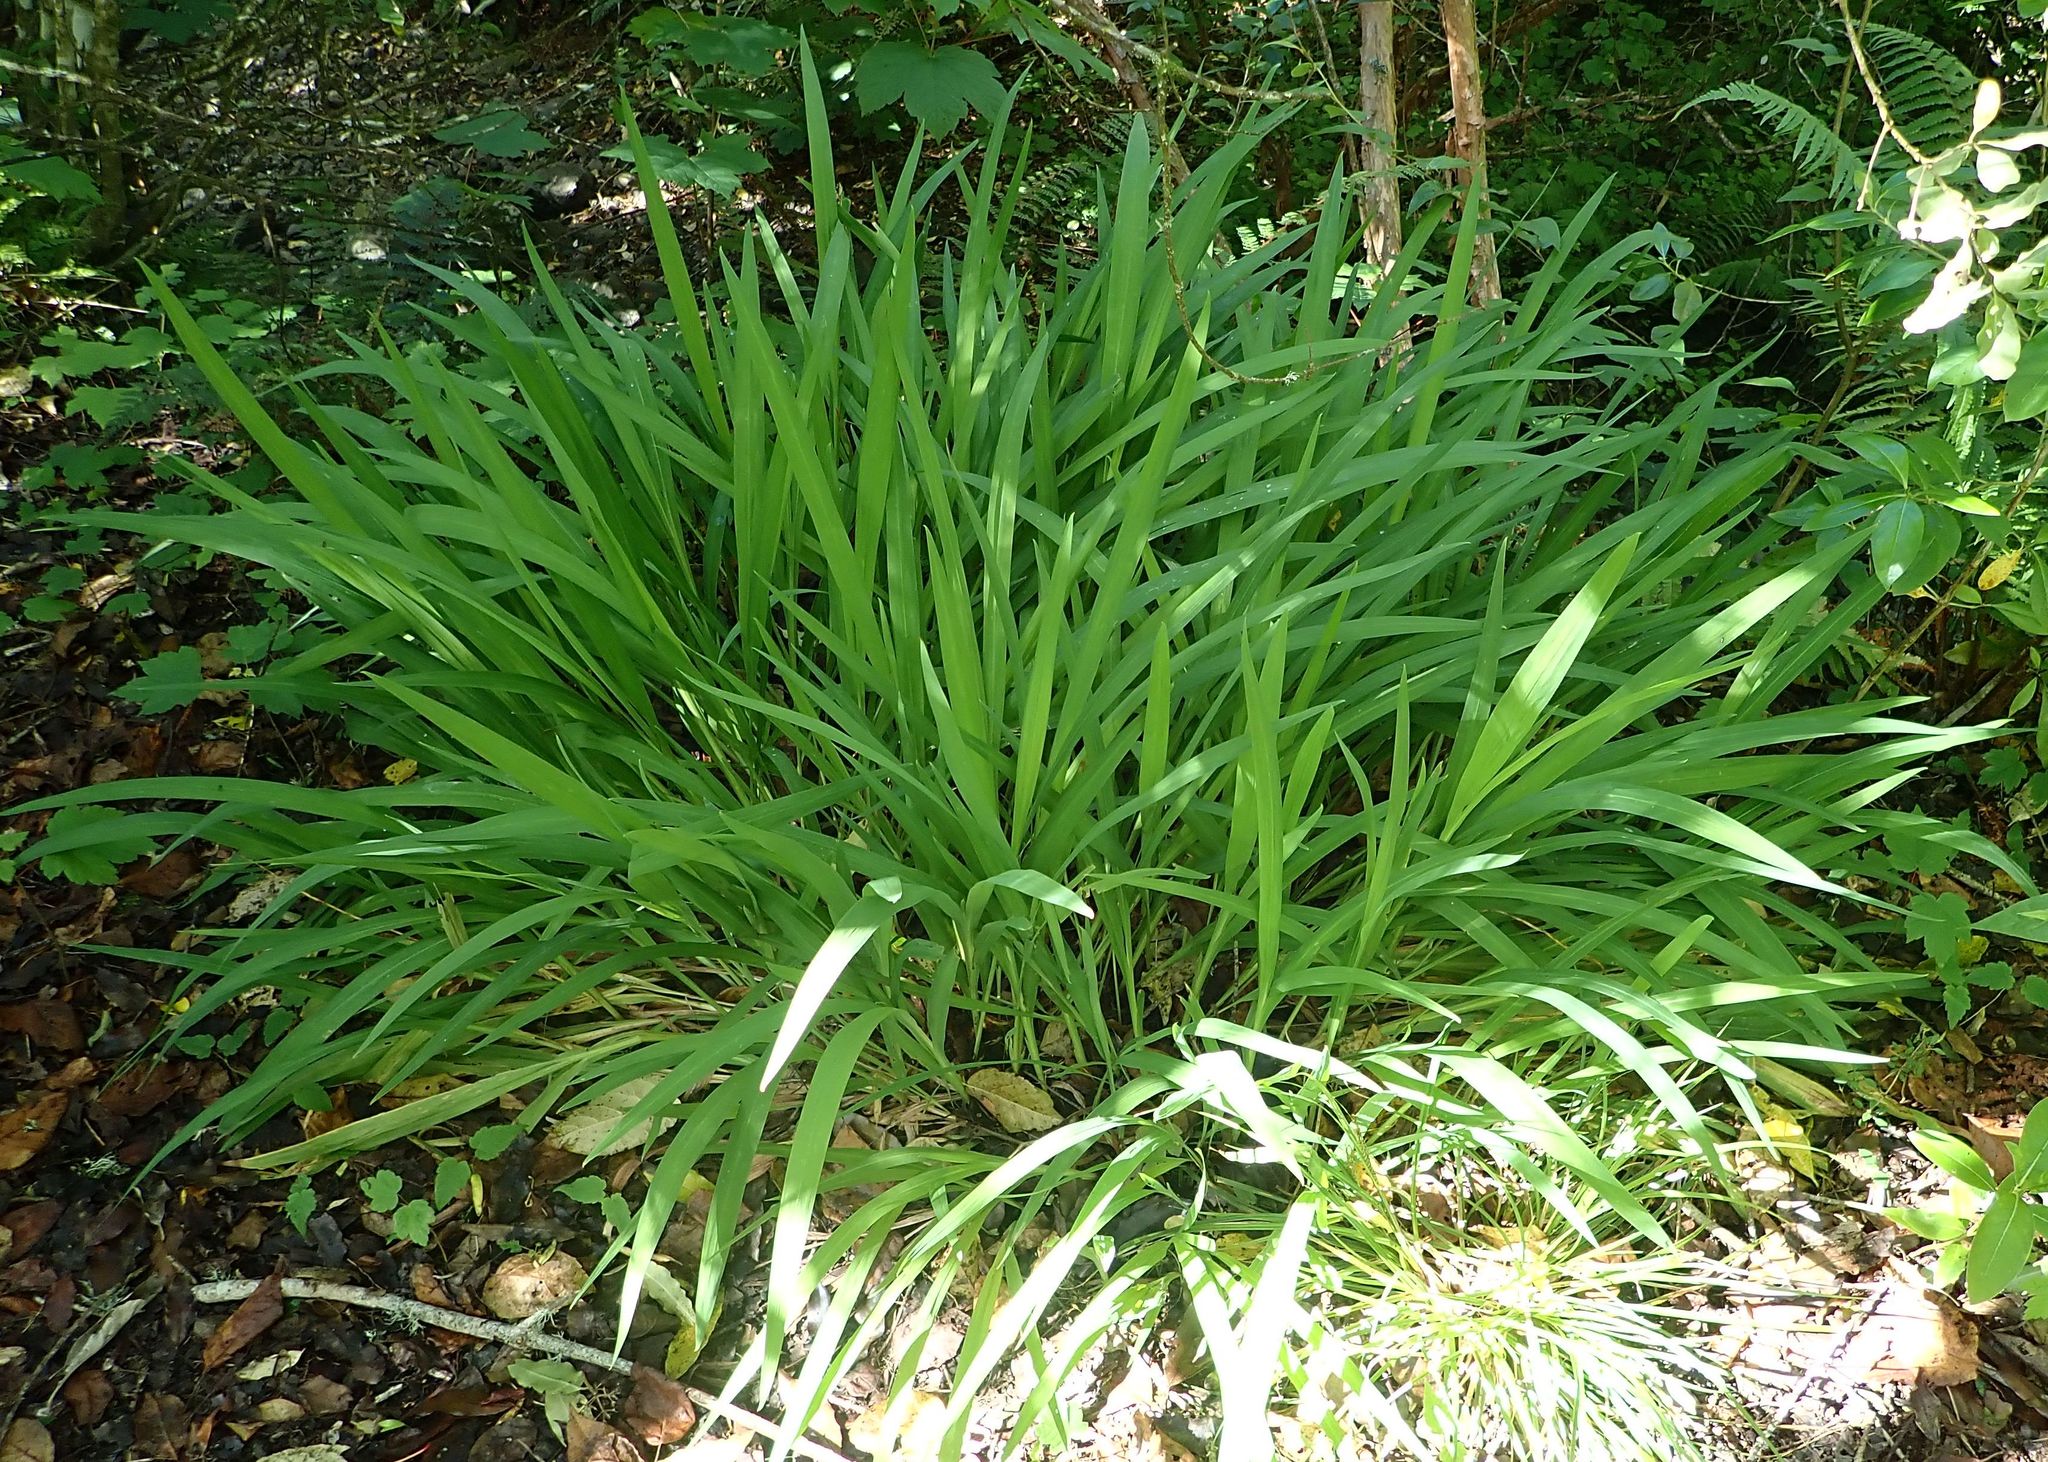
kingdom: Plantae
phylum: Tracheophyta
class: Liliopsida
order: Asparagales
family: Iridaceae
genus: Crocosmia
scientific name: Crocosmia crocosmiiflora
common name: Montbretia
